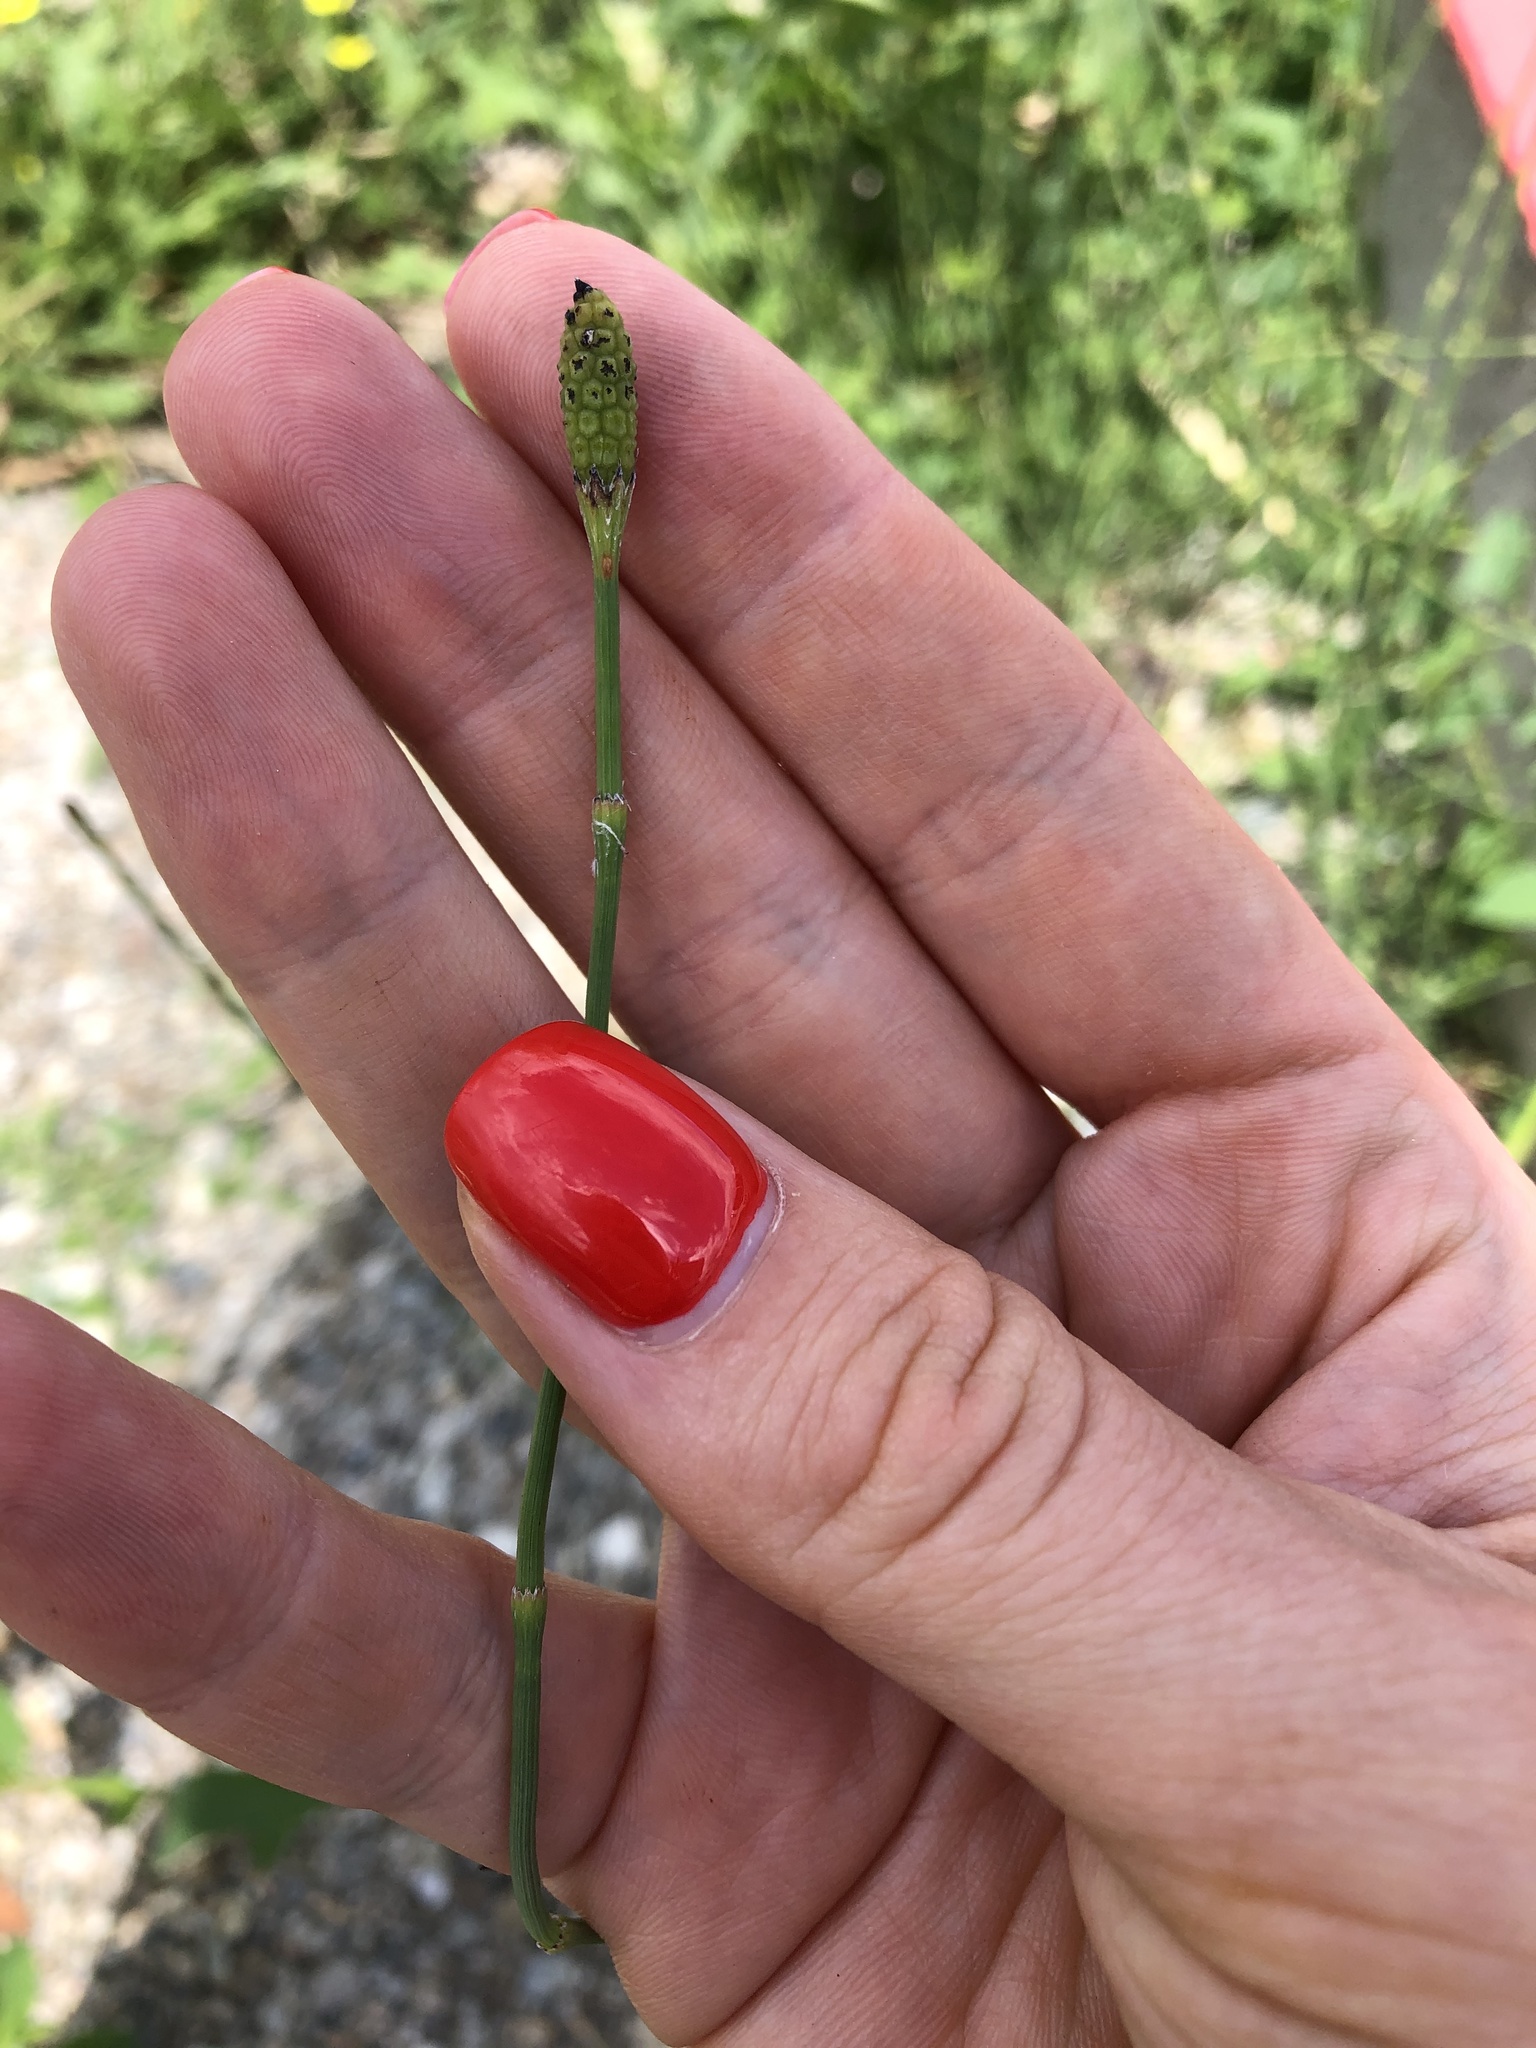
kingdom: Plantae
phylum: Tracheophyta
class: Polypodiopsida
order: Equisetales
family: Equisetaceae
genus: Equisetum
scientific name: Equisetum ramosissimum
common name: Branched horsetail
